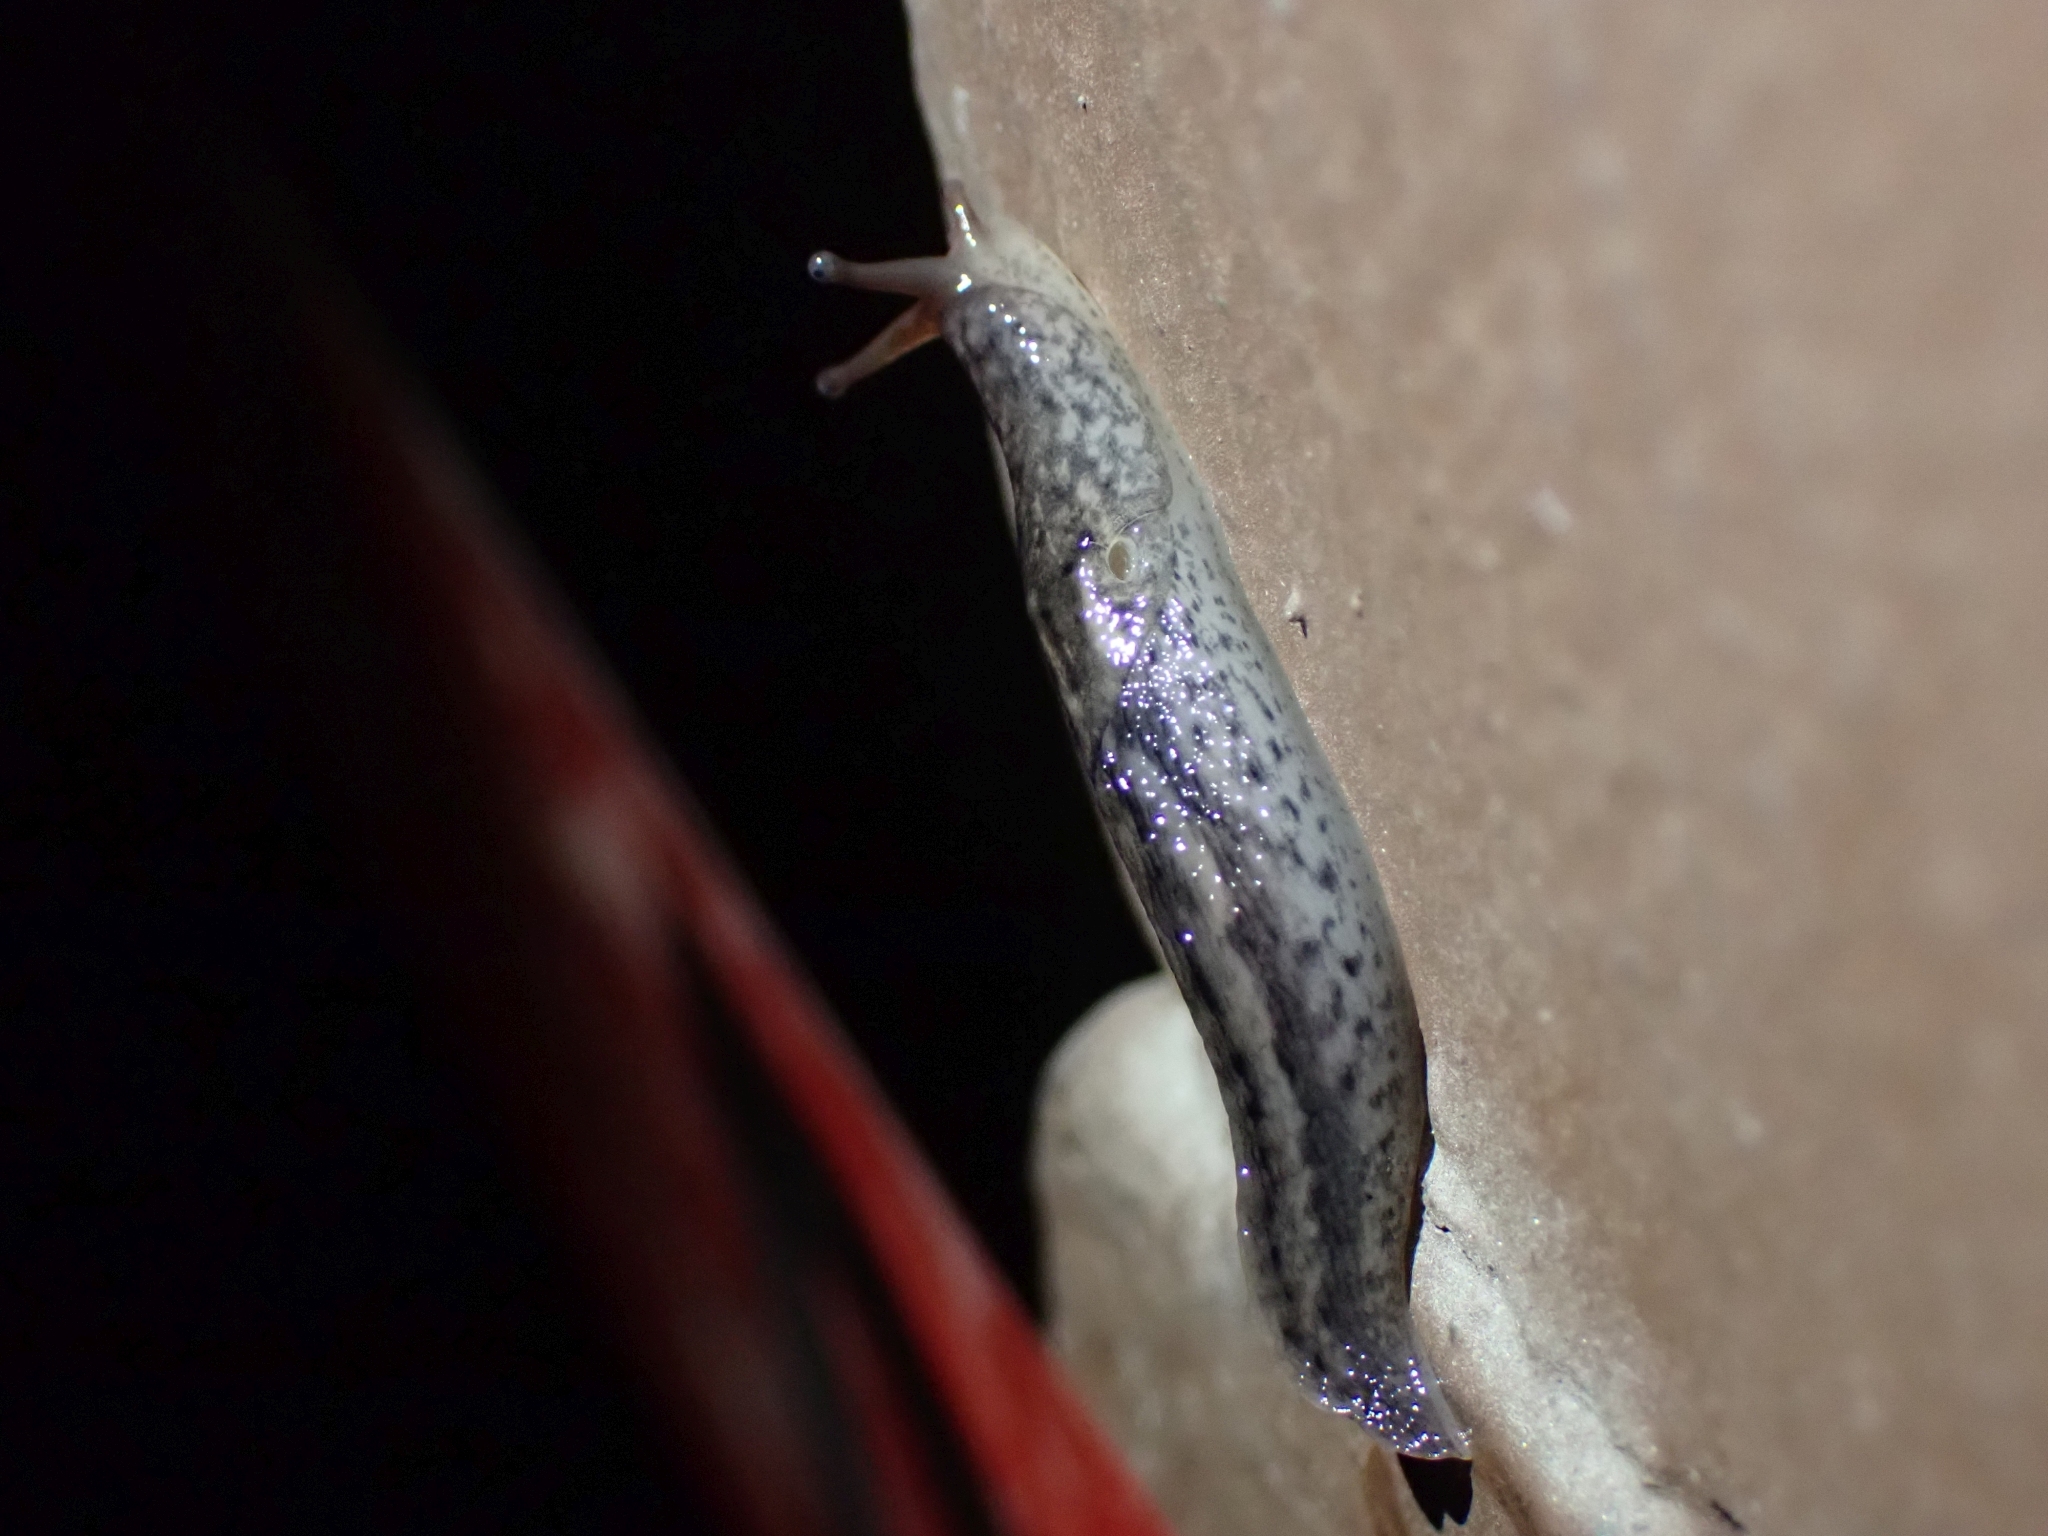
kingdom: Animalia
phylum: Mollusca
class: Gastropoda
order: Stylommatophora
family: Limacidae
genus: Limax
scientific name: Limax maximus
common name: Great grey slug
